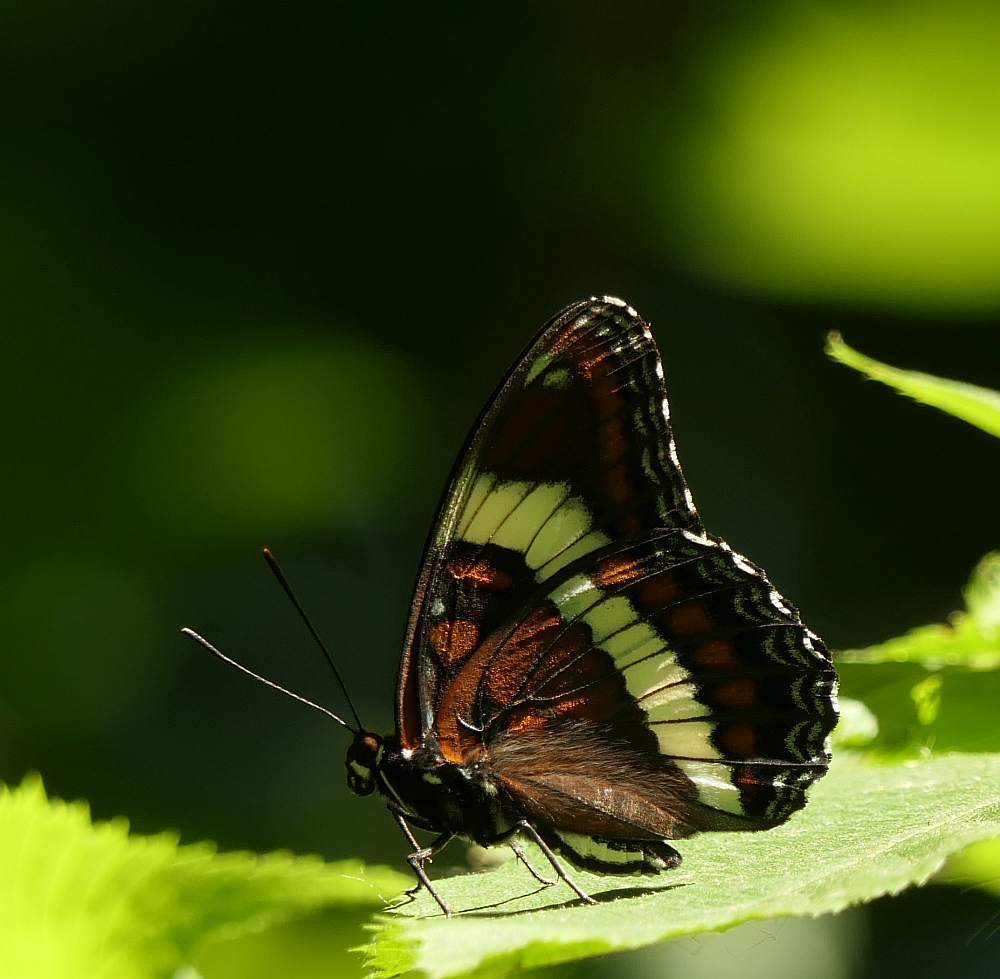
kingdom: Animalia
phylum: Arthropoda
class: Insecta
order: Lepidoptera
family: Nymphalidae
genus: Limenitis
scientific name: Limenitis arthemis
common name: Red-spotted admiral
